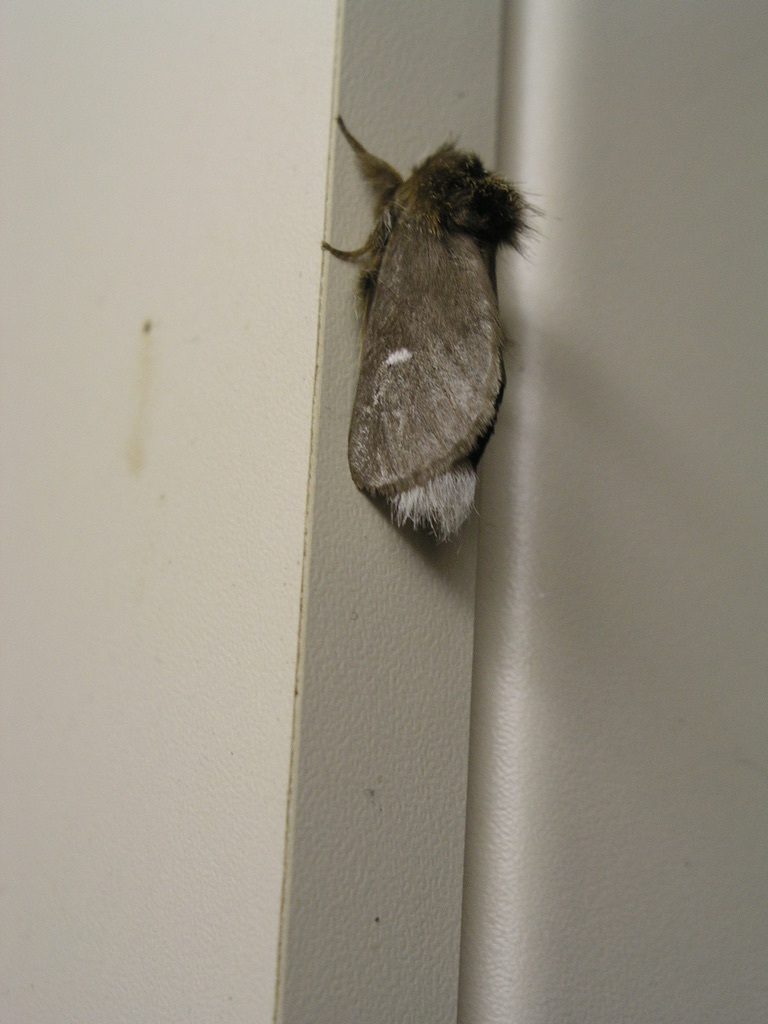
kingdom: Animalia
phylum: Arthropoda
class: Insecta
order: Lepidoptera
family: Notodontidae
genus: Ochrogaster
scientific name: Ochrogaster lunifer
